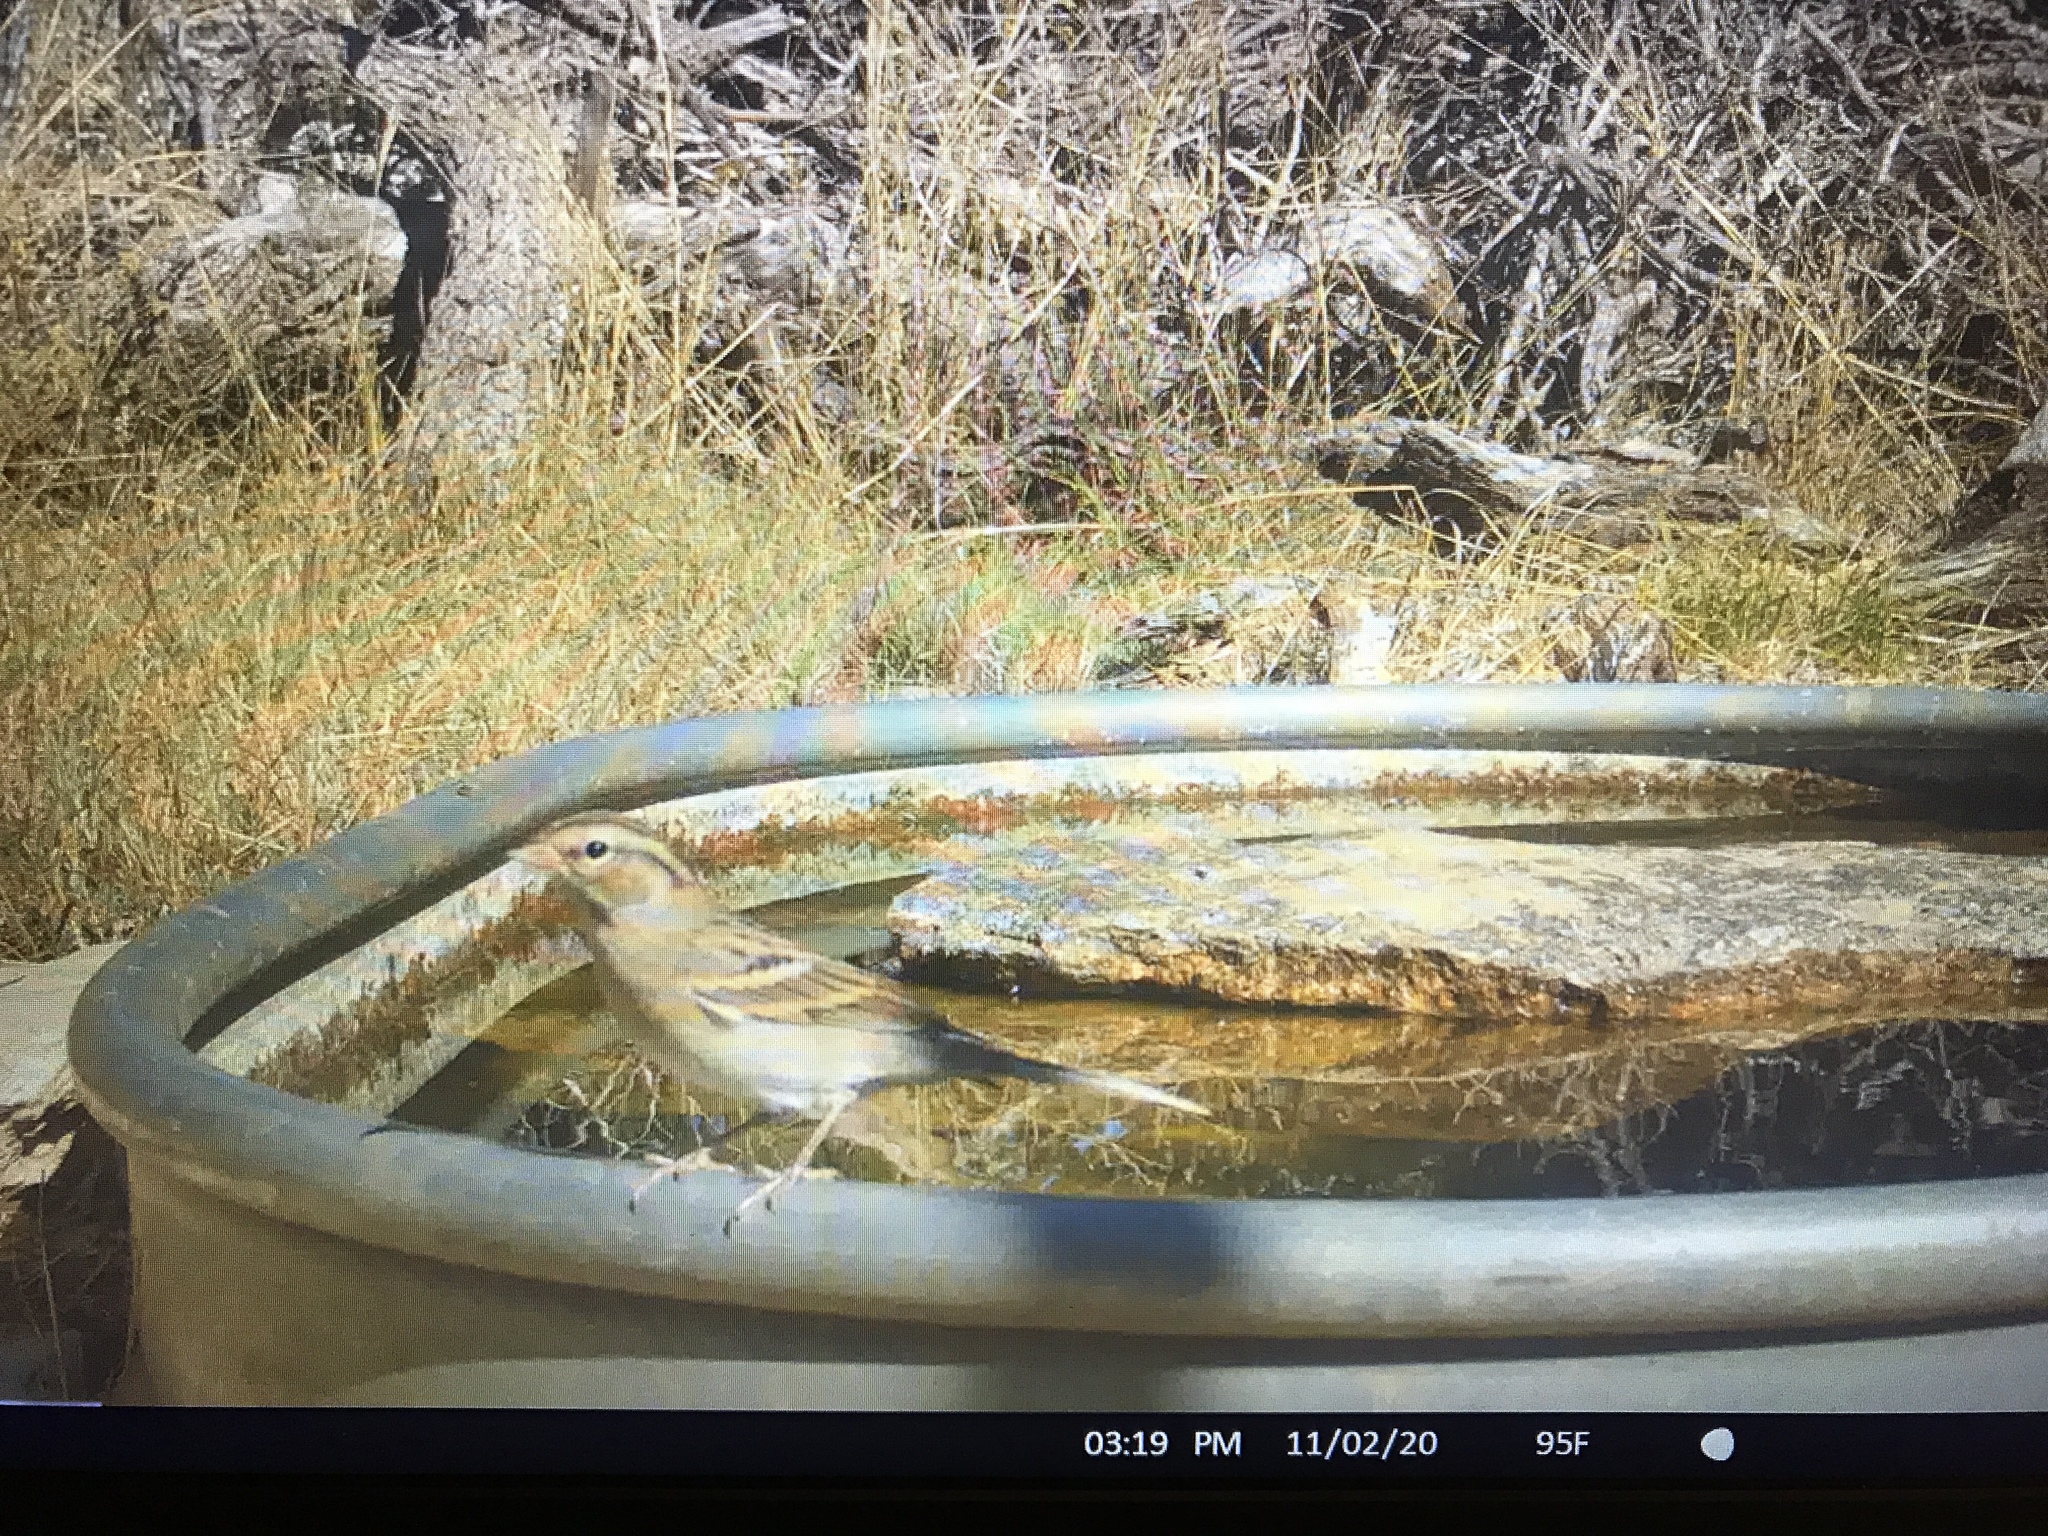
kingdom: Animalia
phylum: Chordata
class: Aves
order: Passeriformes
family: Passerellidae
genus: Spizella
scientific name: Spizella passerina
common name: Chipping sparrow
